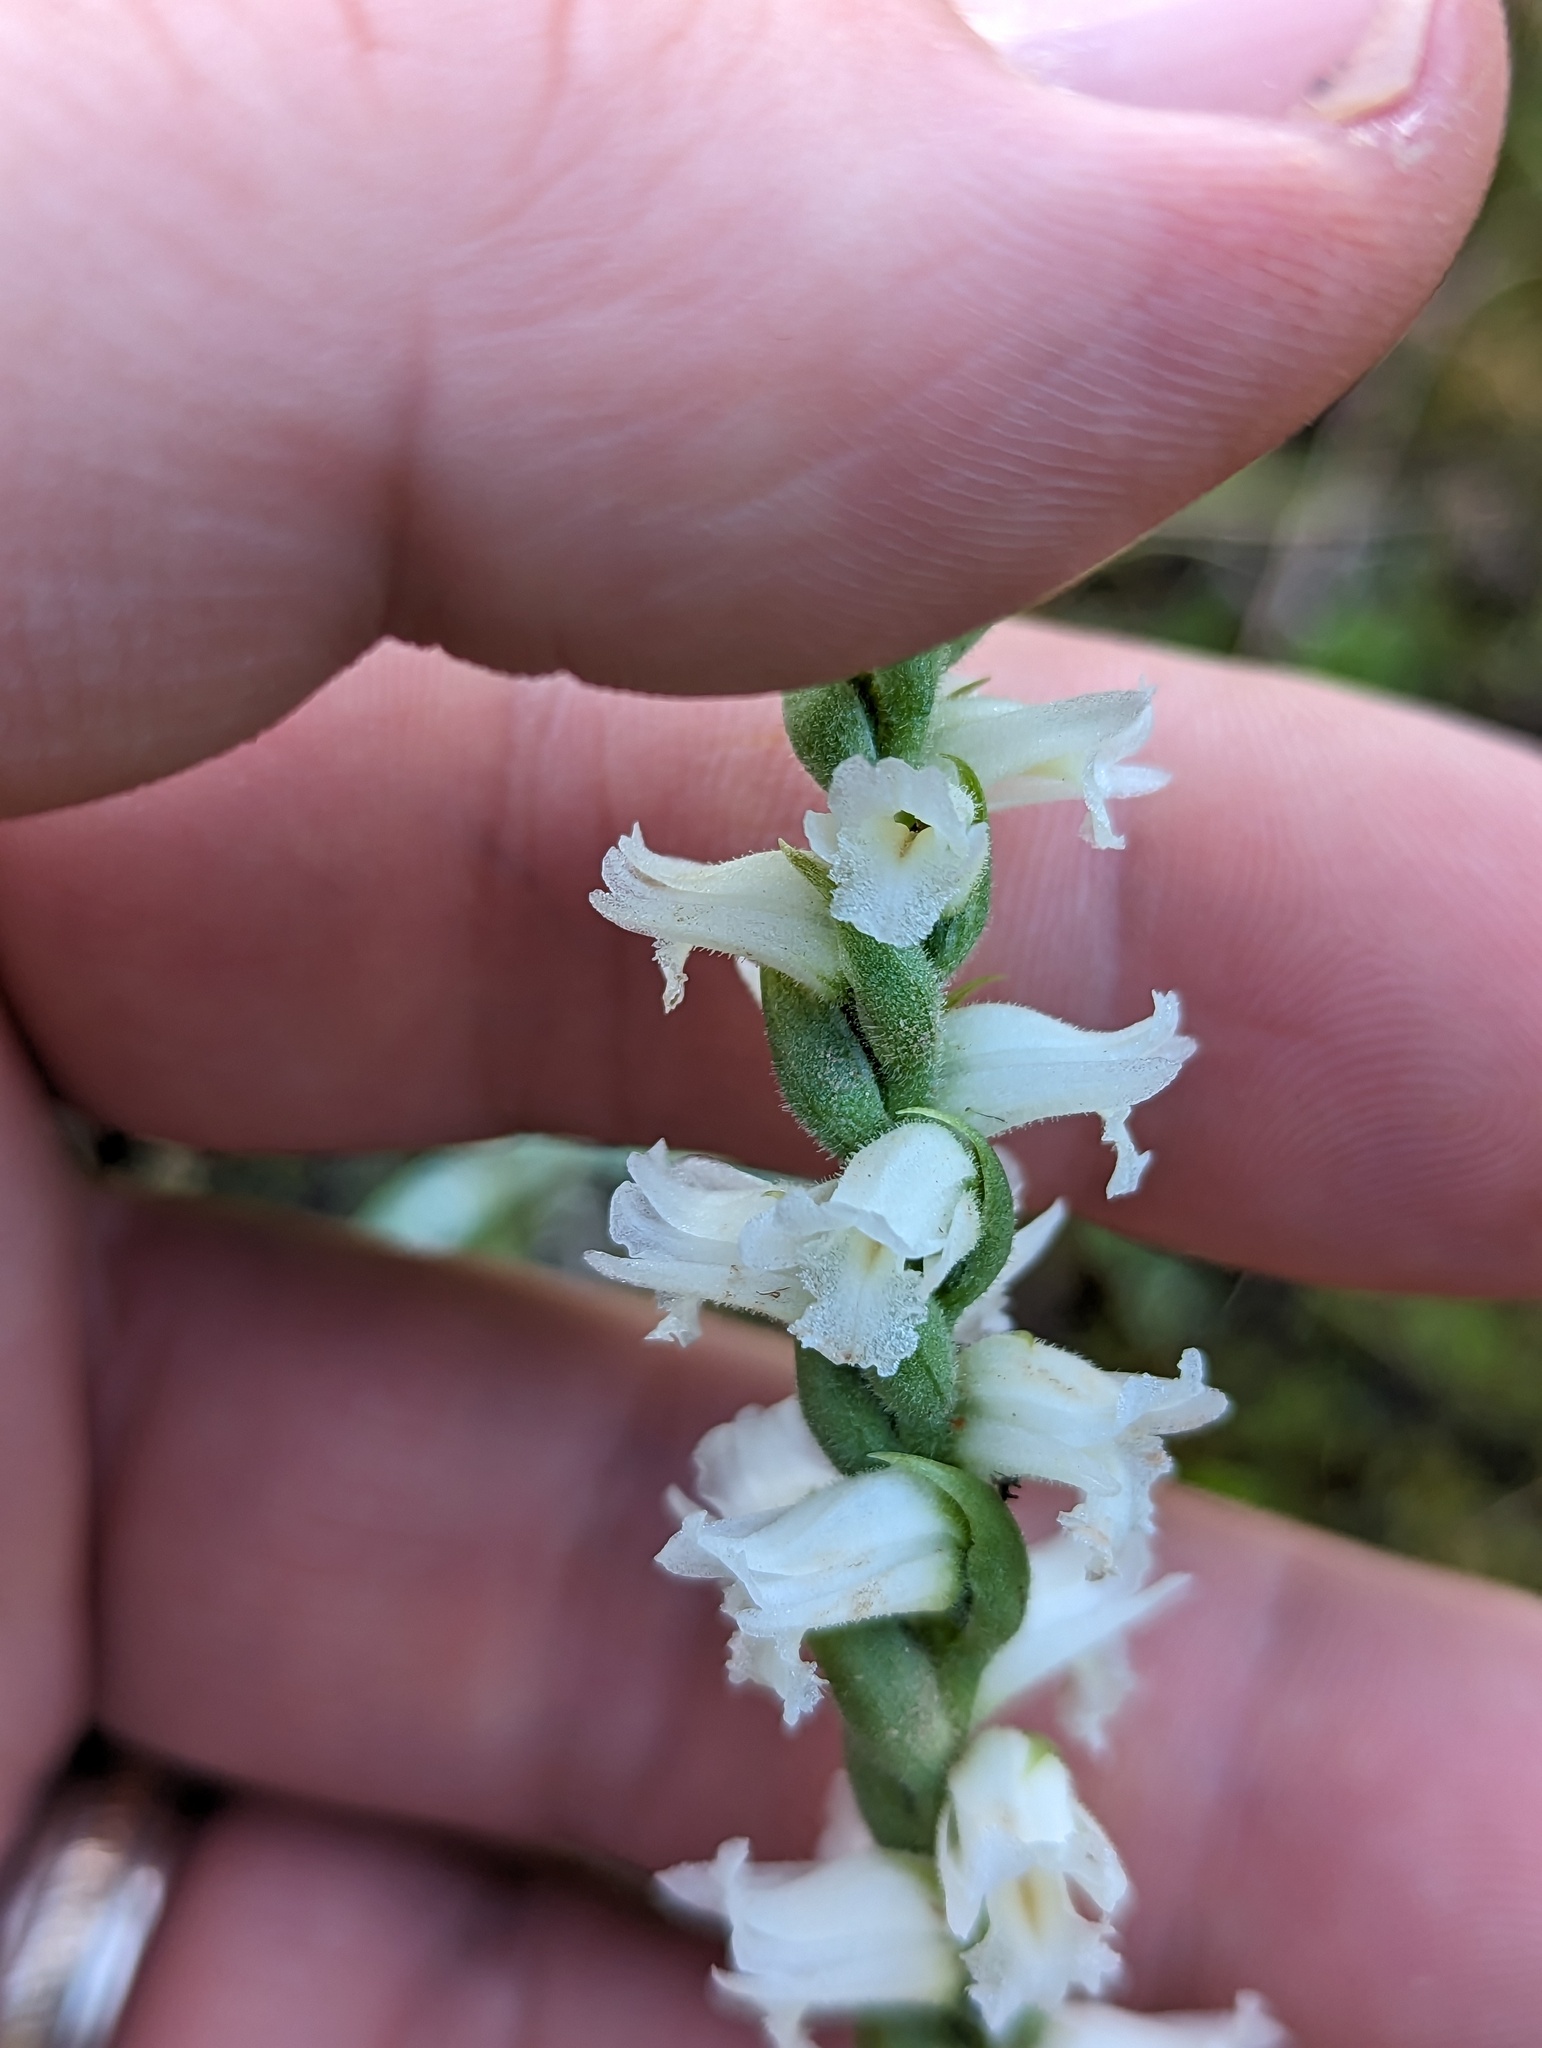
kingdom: Plantae
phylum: Tracheophyta
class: Liliopsida
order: Asparagales
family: Orchidaceae
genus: Spiranthes
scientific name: Spiranthes ochroleuca
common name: Yellow ladies'-tresses
